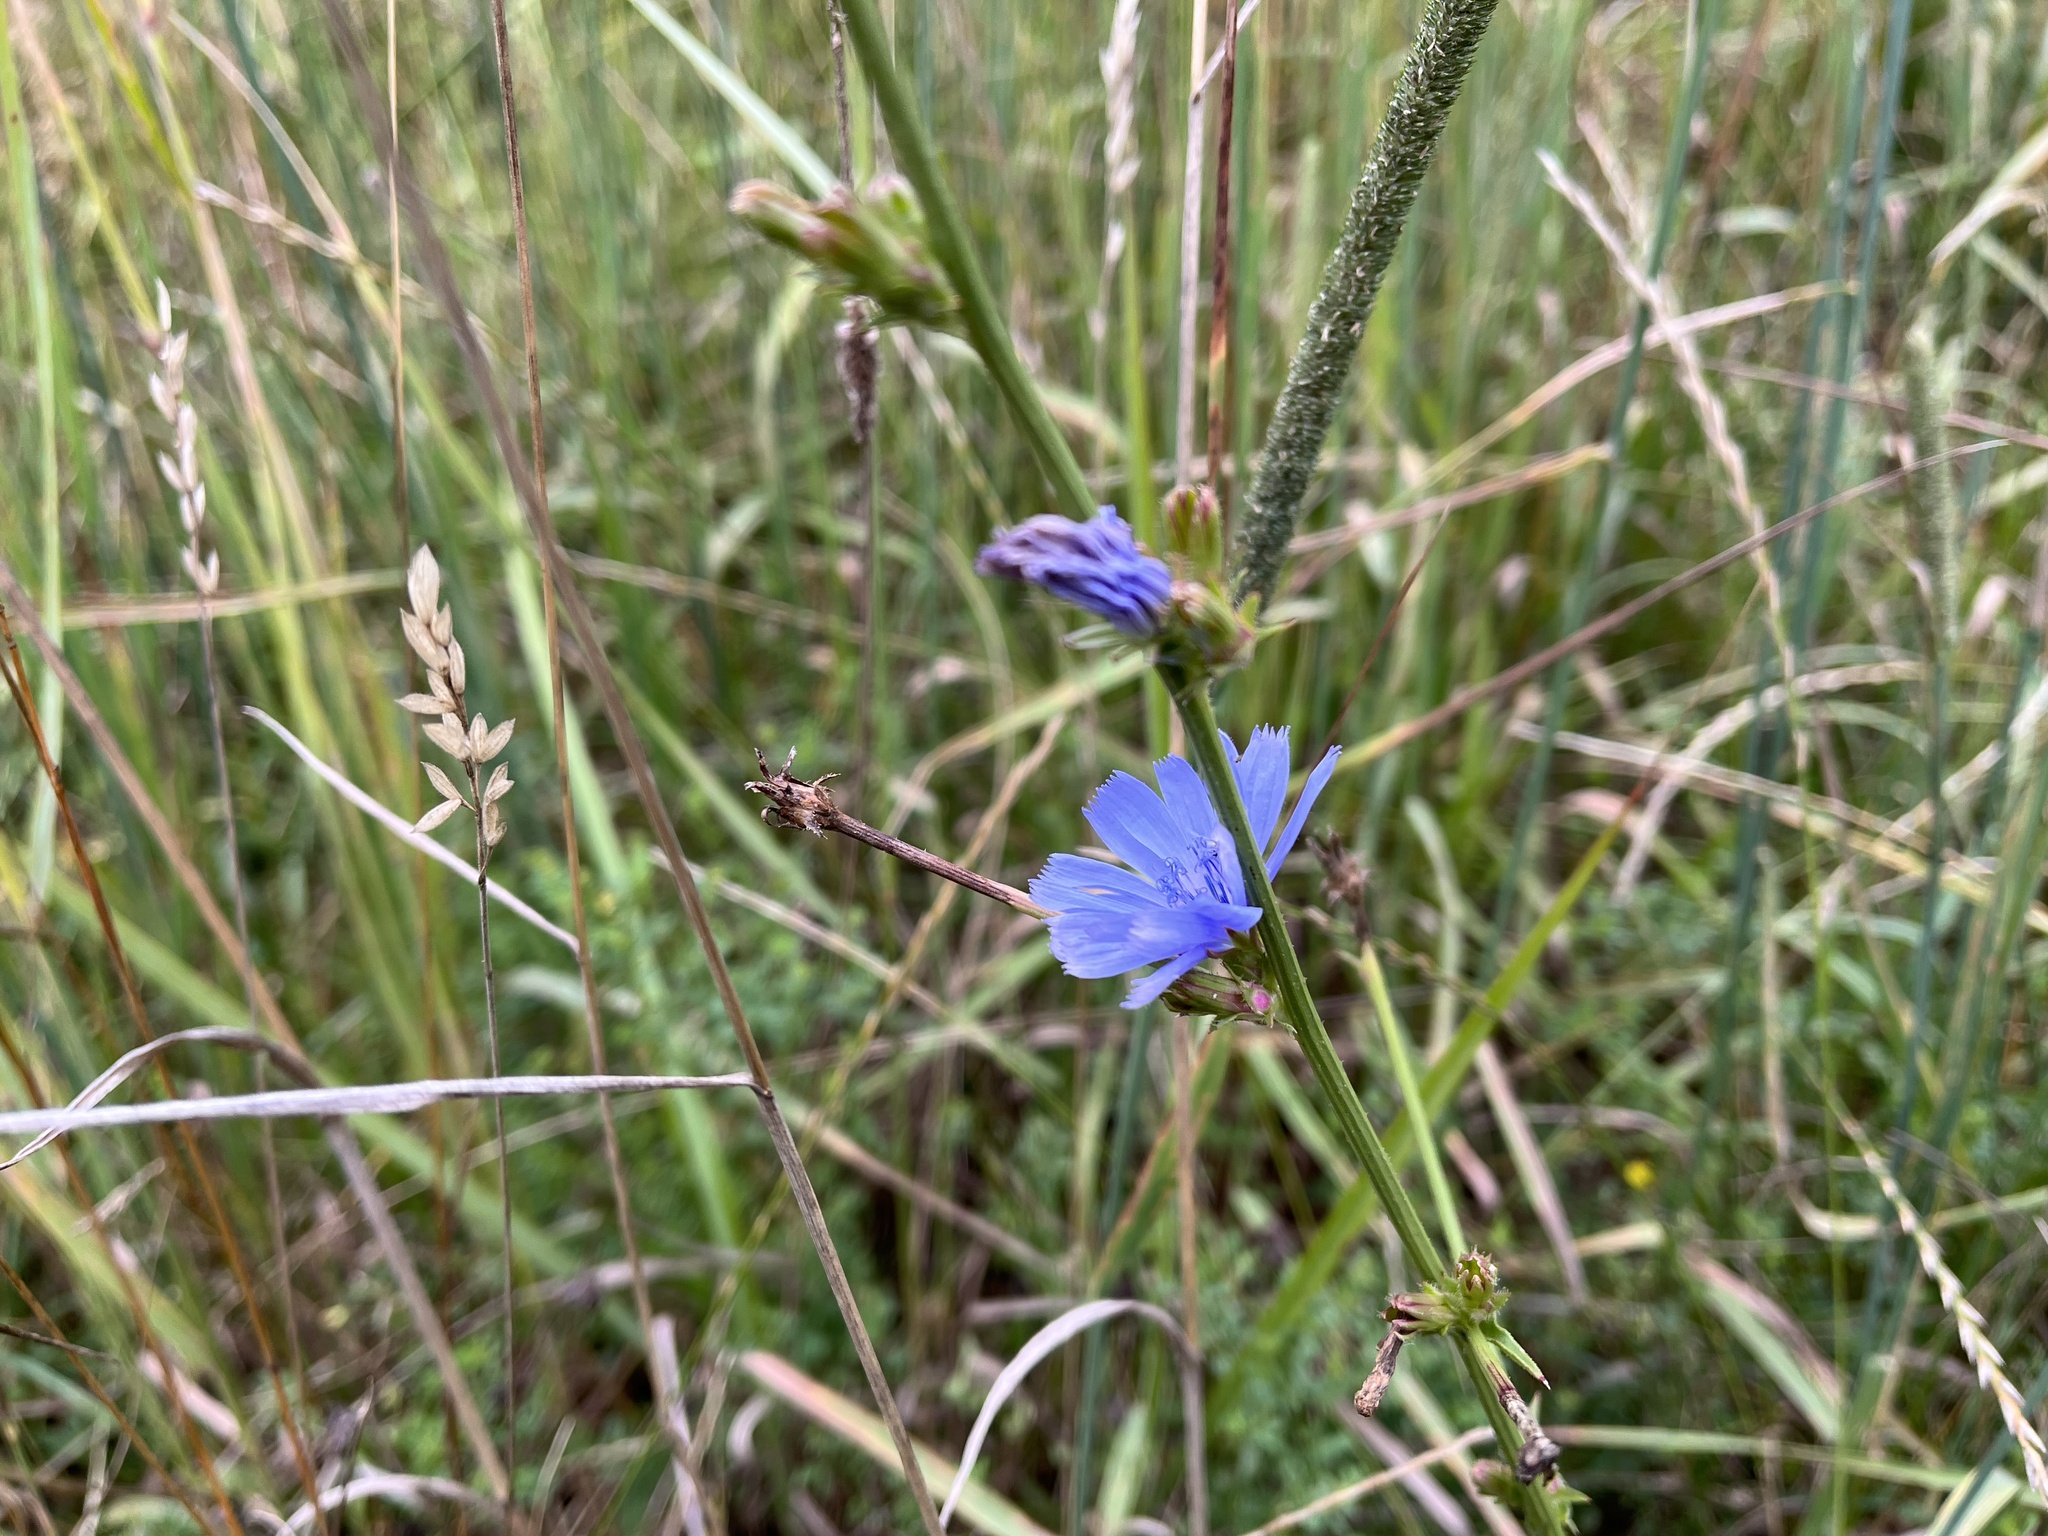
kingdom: Plantae
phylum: Tracheophyta
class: Magnoliopsida
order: Asterales
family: Asteraceae
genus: Cichorium
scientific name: Cichorium intybus
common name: Chicory
